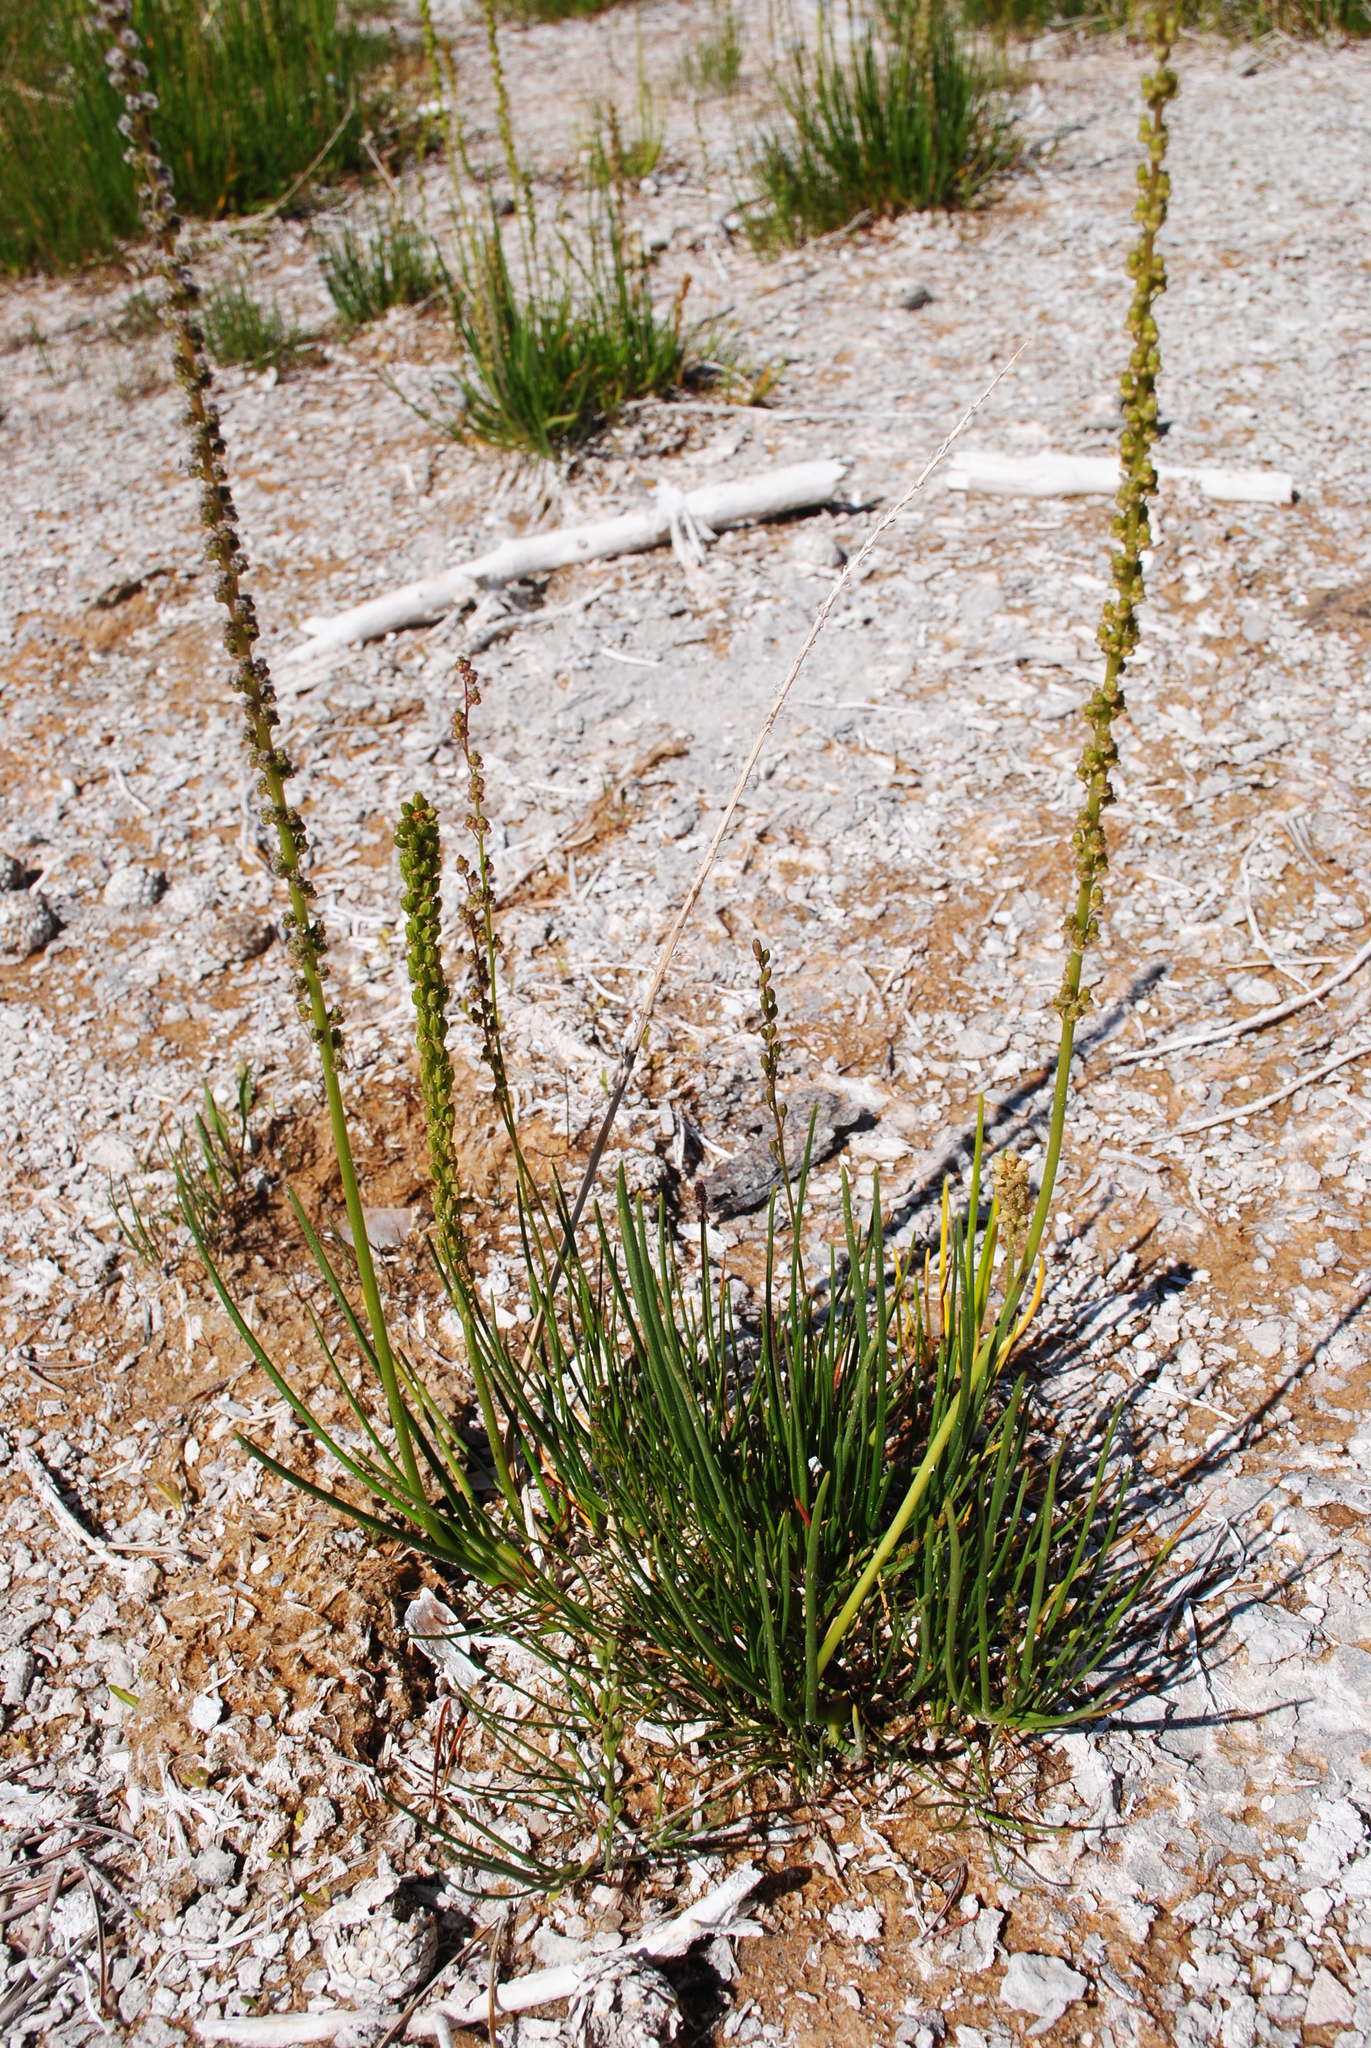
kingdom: Plantae
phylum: Tracheophyta
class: Liliopsida
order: Alismatales
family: Juncaginaceae
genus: Triglochin
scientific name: Triglochin maritima
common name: Sea arrowgrass
